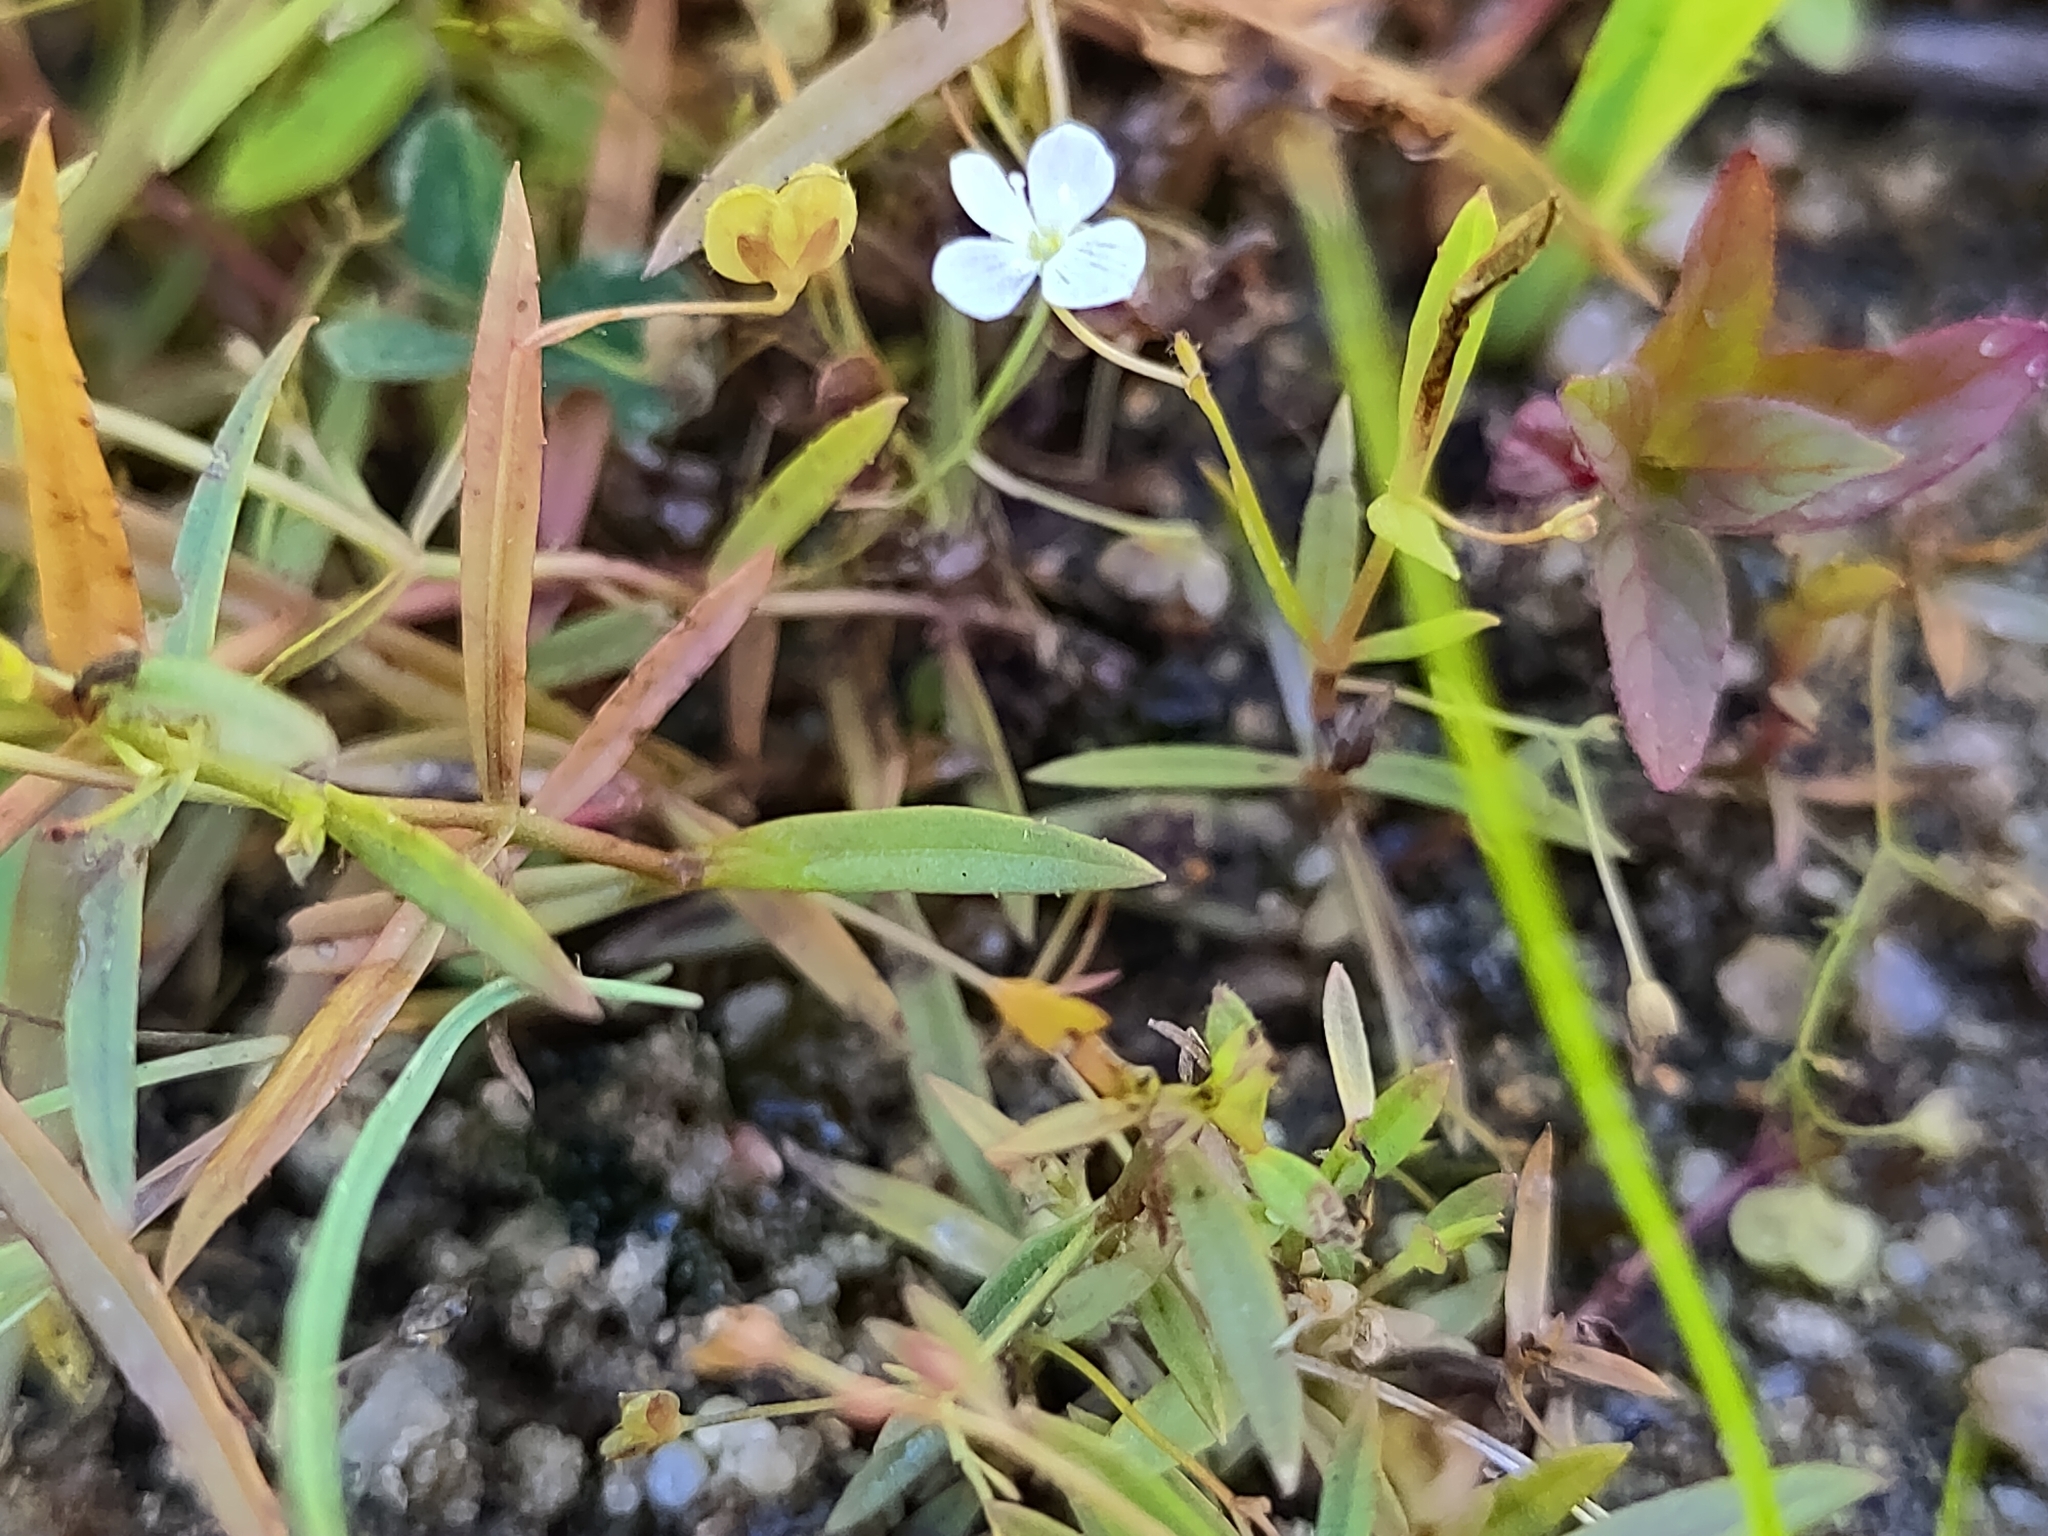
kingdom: Plantae
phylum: Tracheophyta
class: Magnoliopsida
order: Lamiales
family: Plantaginaceae
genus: Veronica
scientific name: Veronica scutellata
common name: Marsh speedwell
